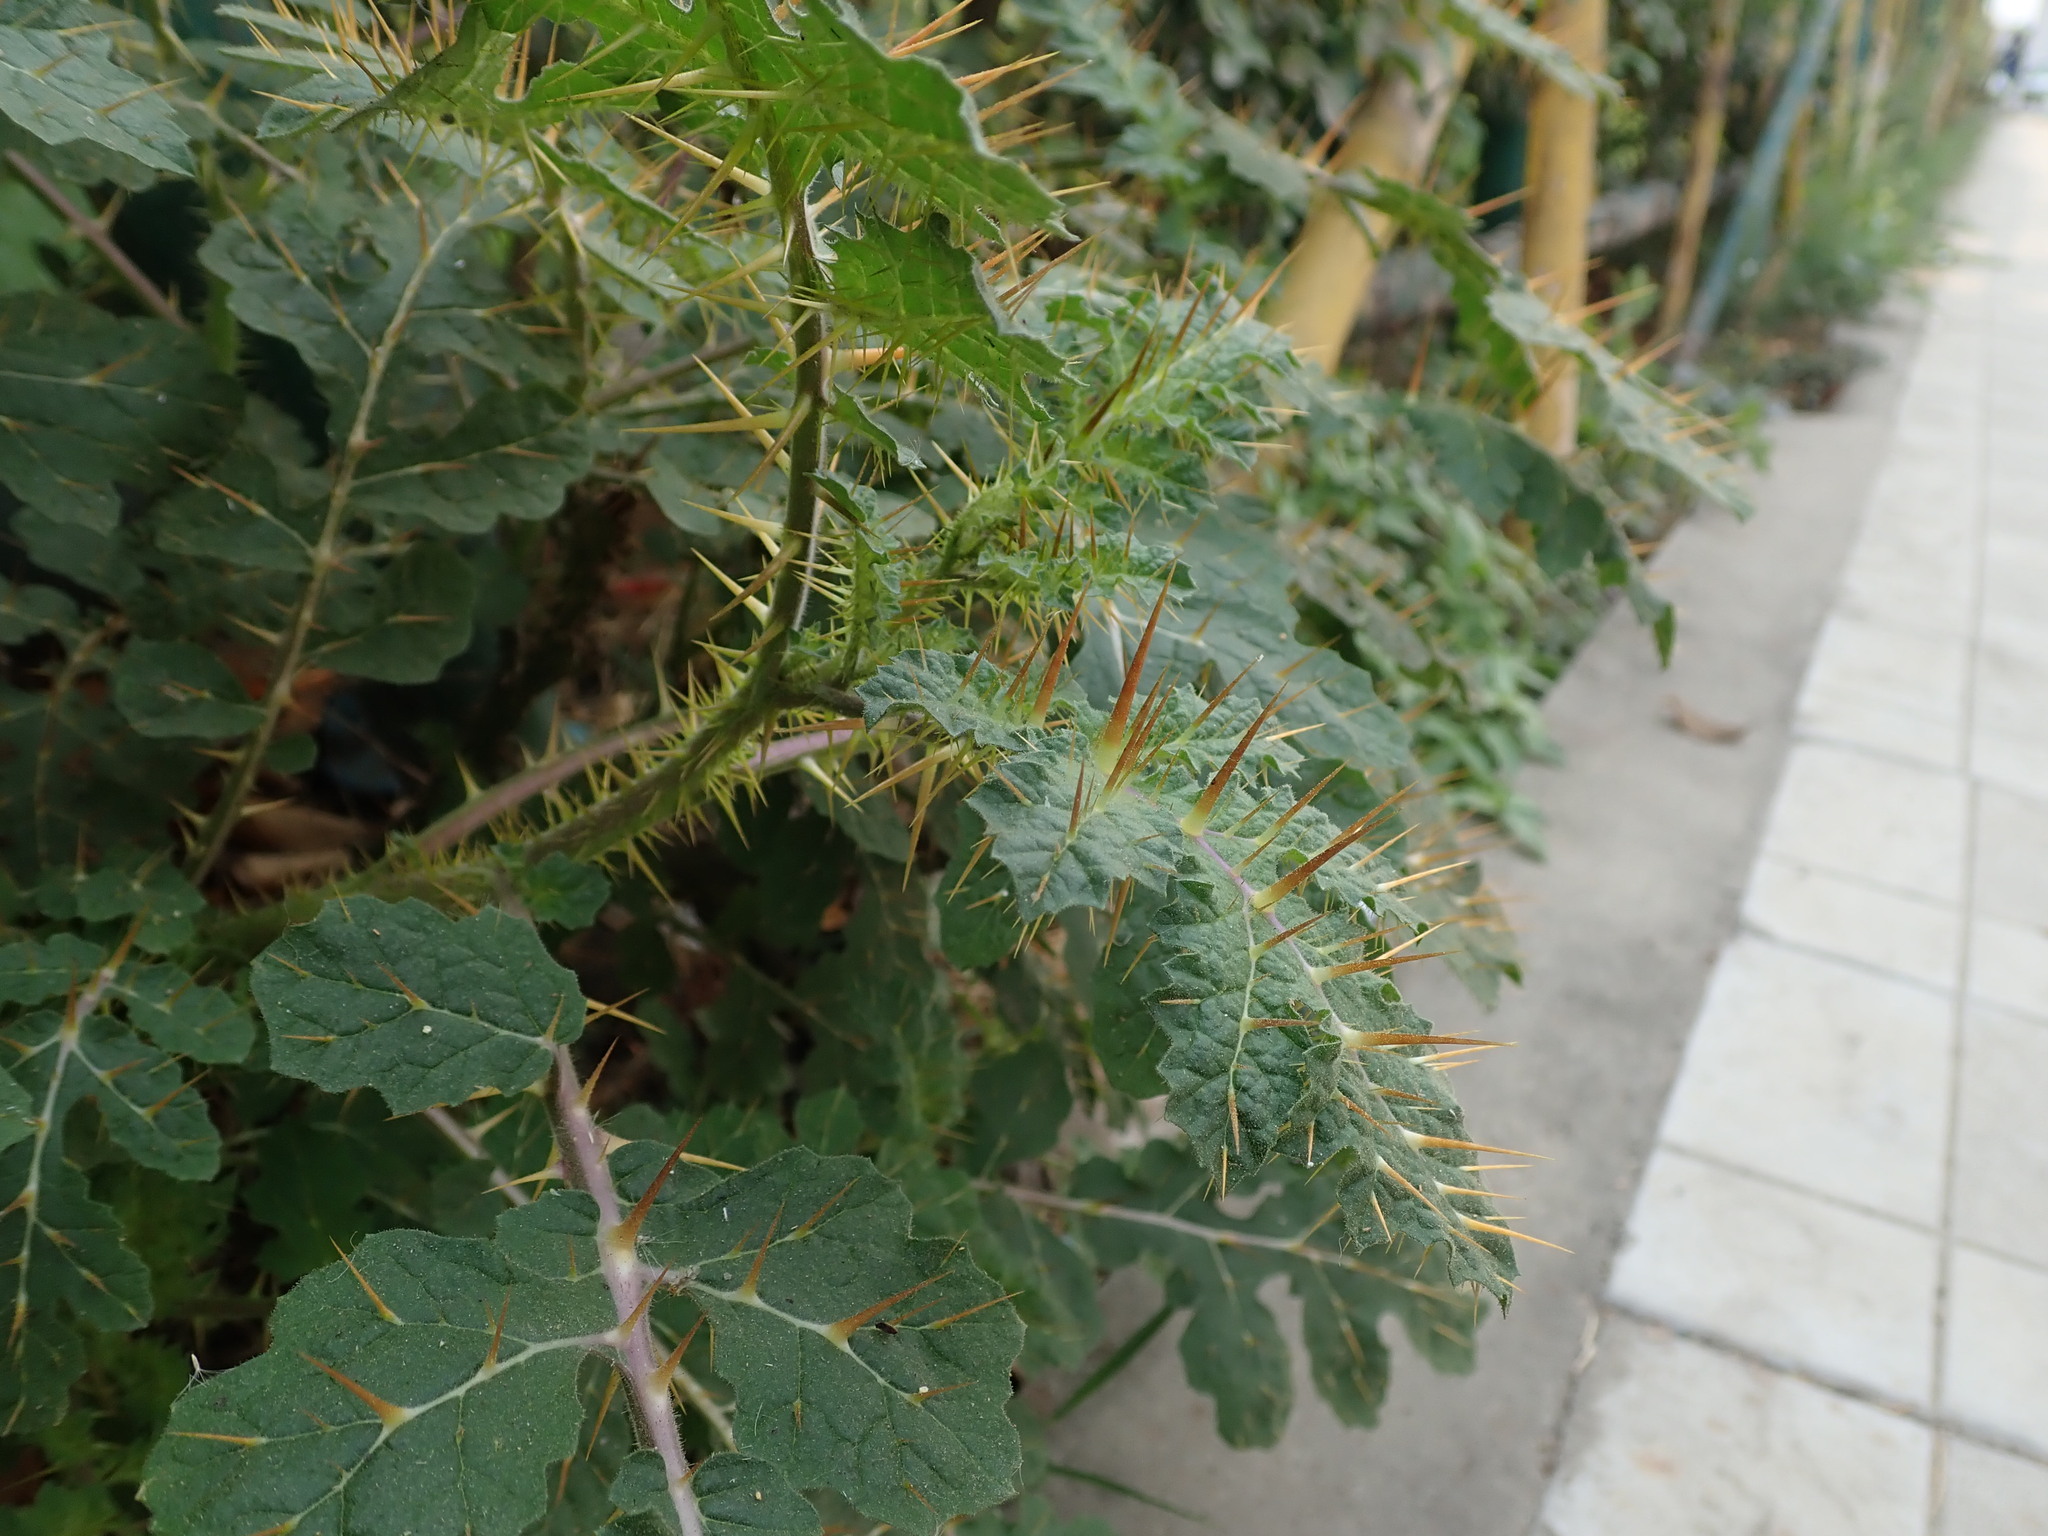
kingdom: Plantae
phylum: Tracheophyta
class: Magnoliopsida
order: Solanales
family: Solanaceae
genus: Solanum
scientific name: Solanum sisymbriifolium
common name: Red buffalo-bur
